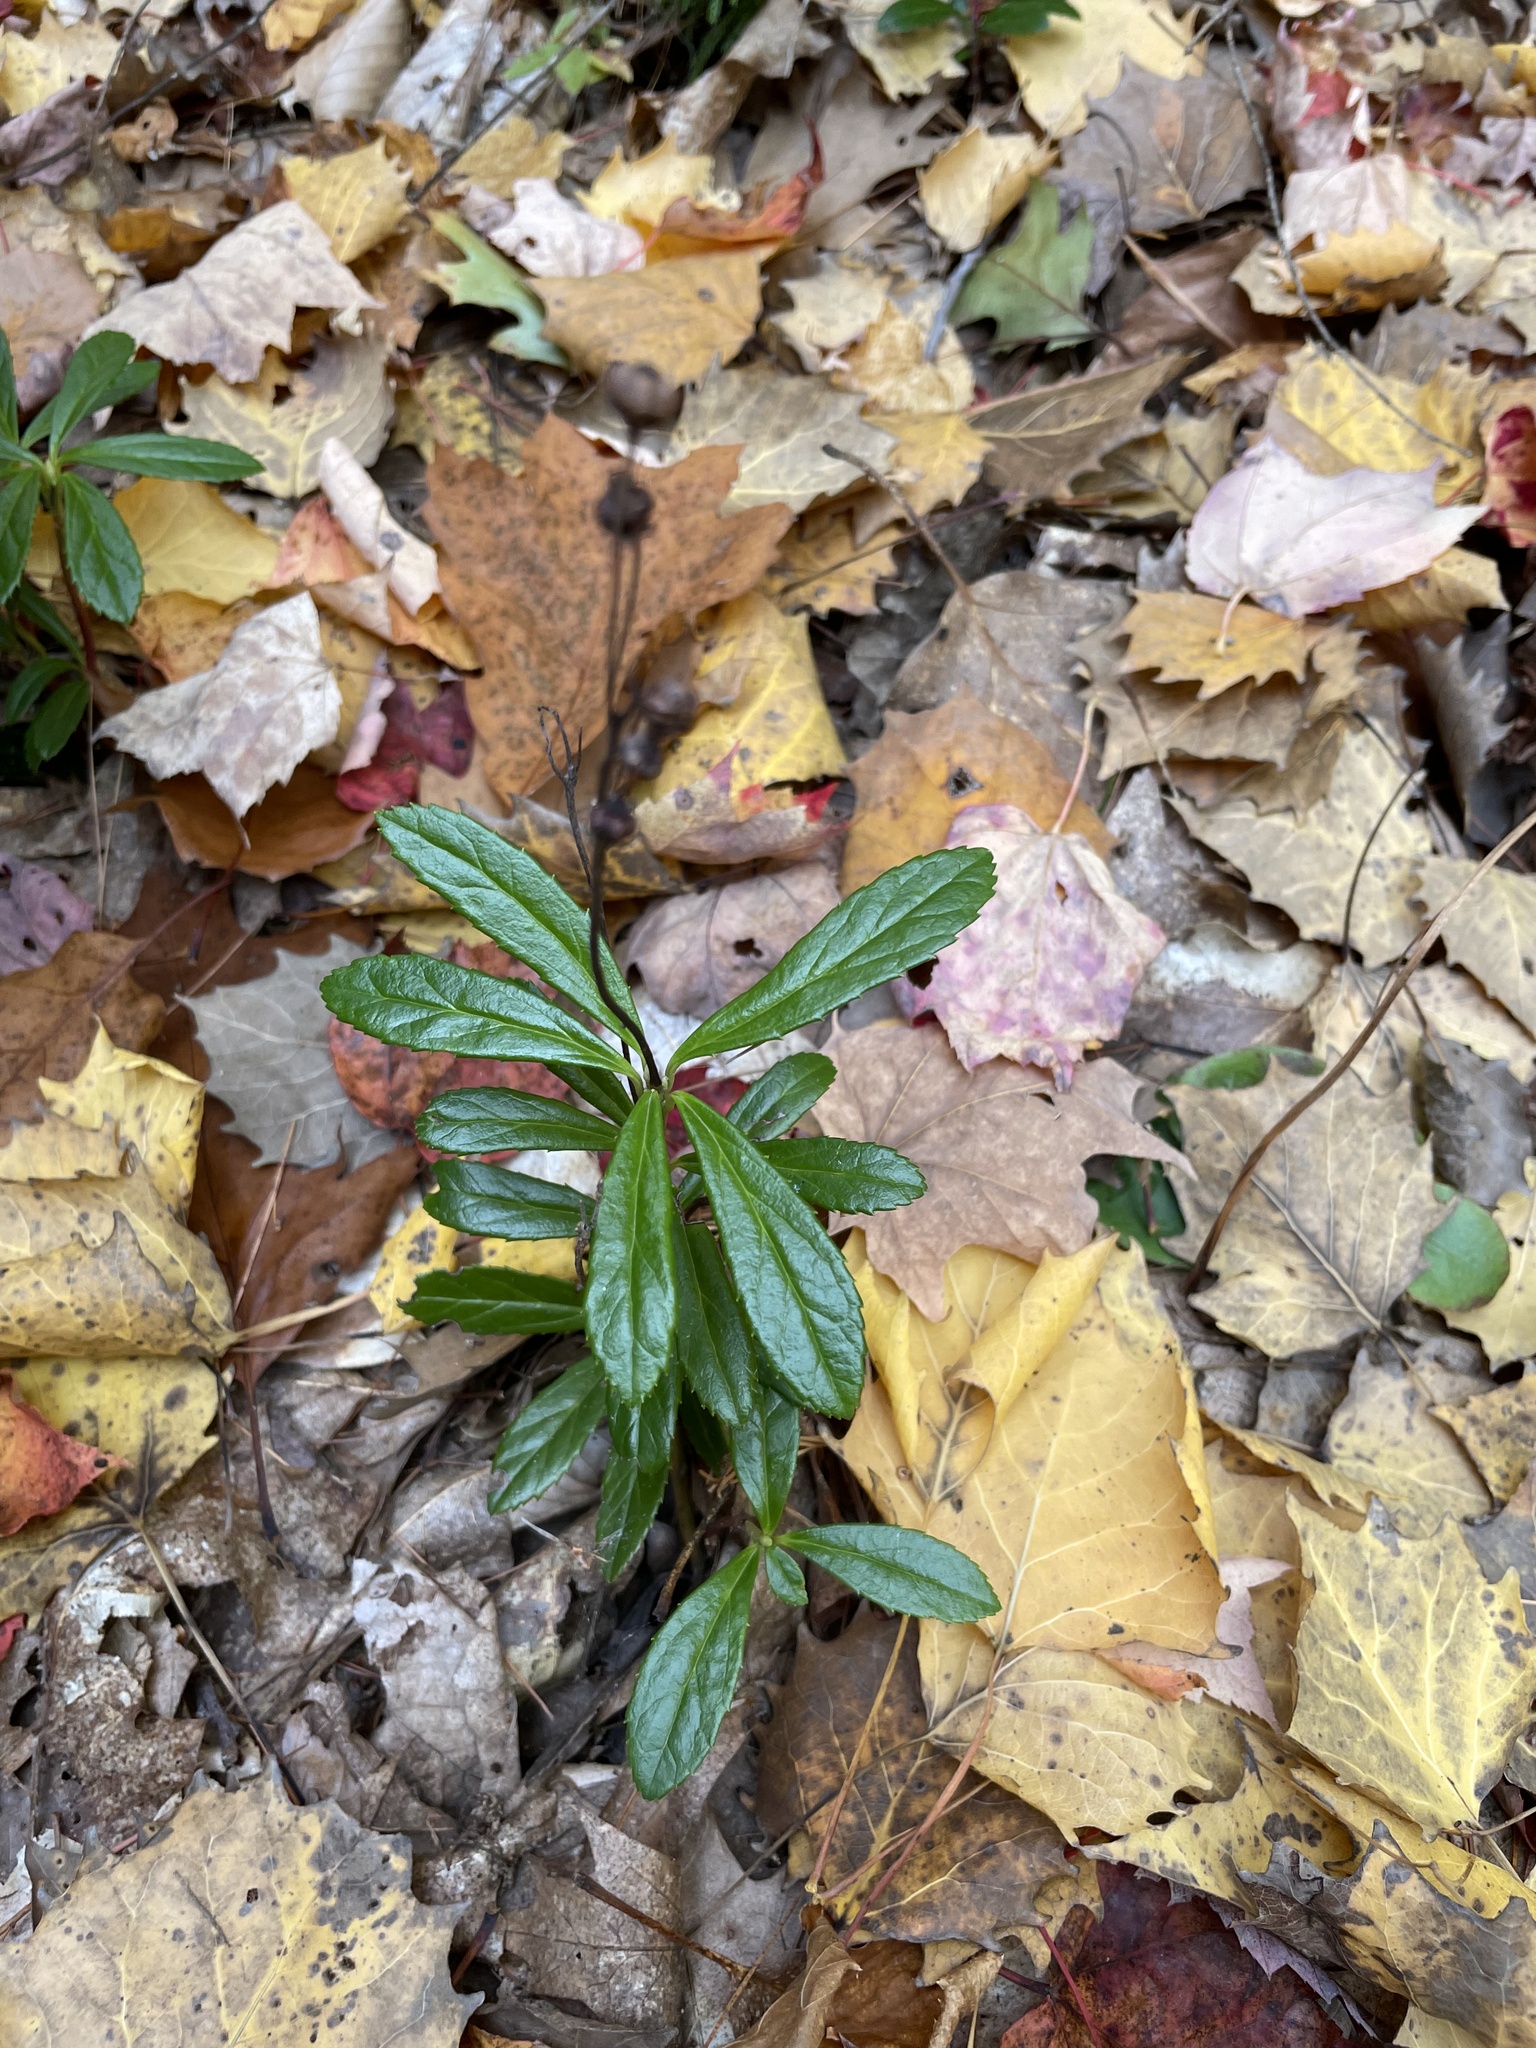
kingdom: Plantae
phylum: Tracheophyta
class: Magnoliopsida
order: Ericales
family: Ericaceae
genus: Chimaphila
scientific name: Chimaphila umbellata
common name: Pipsissewa
